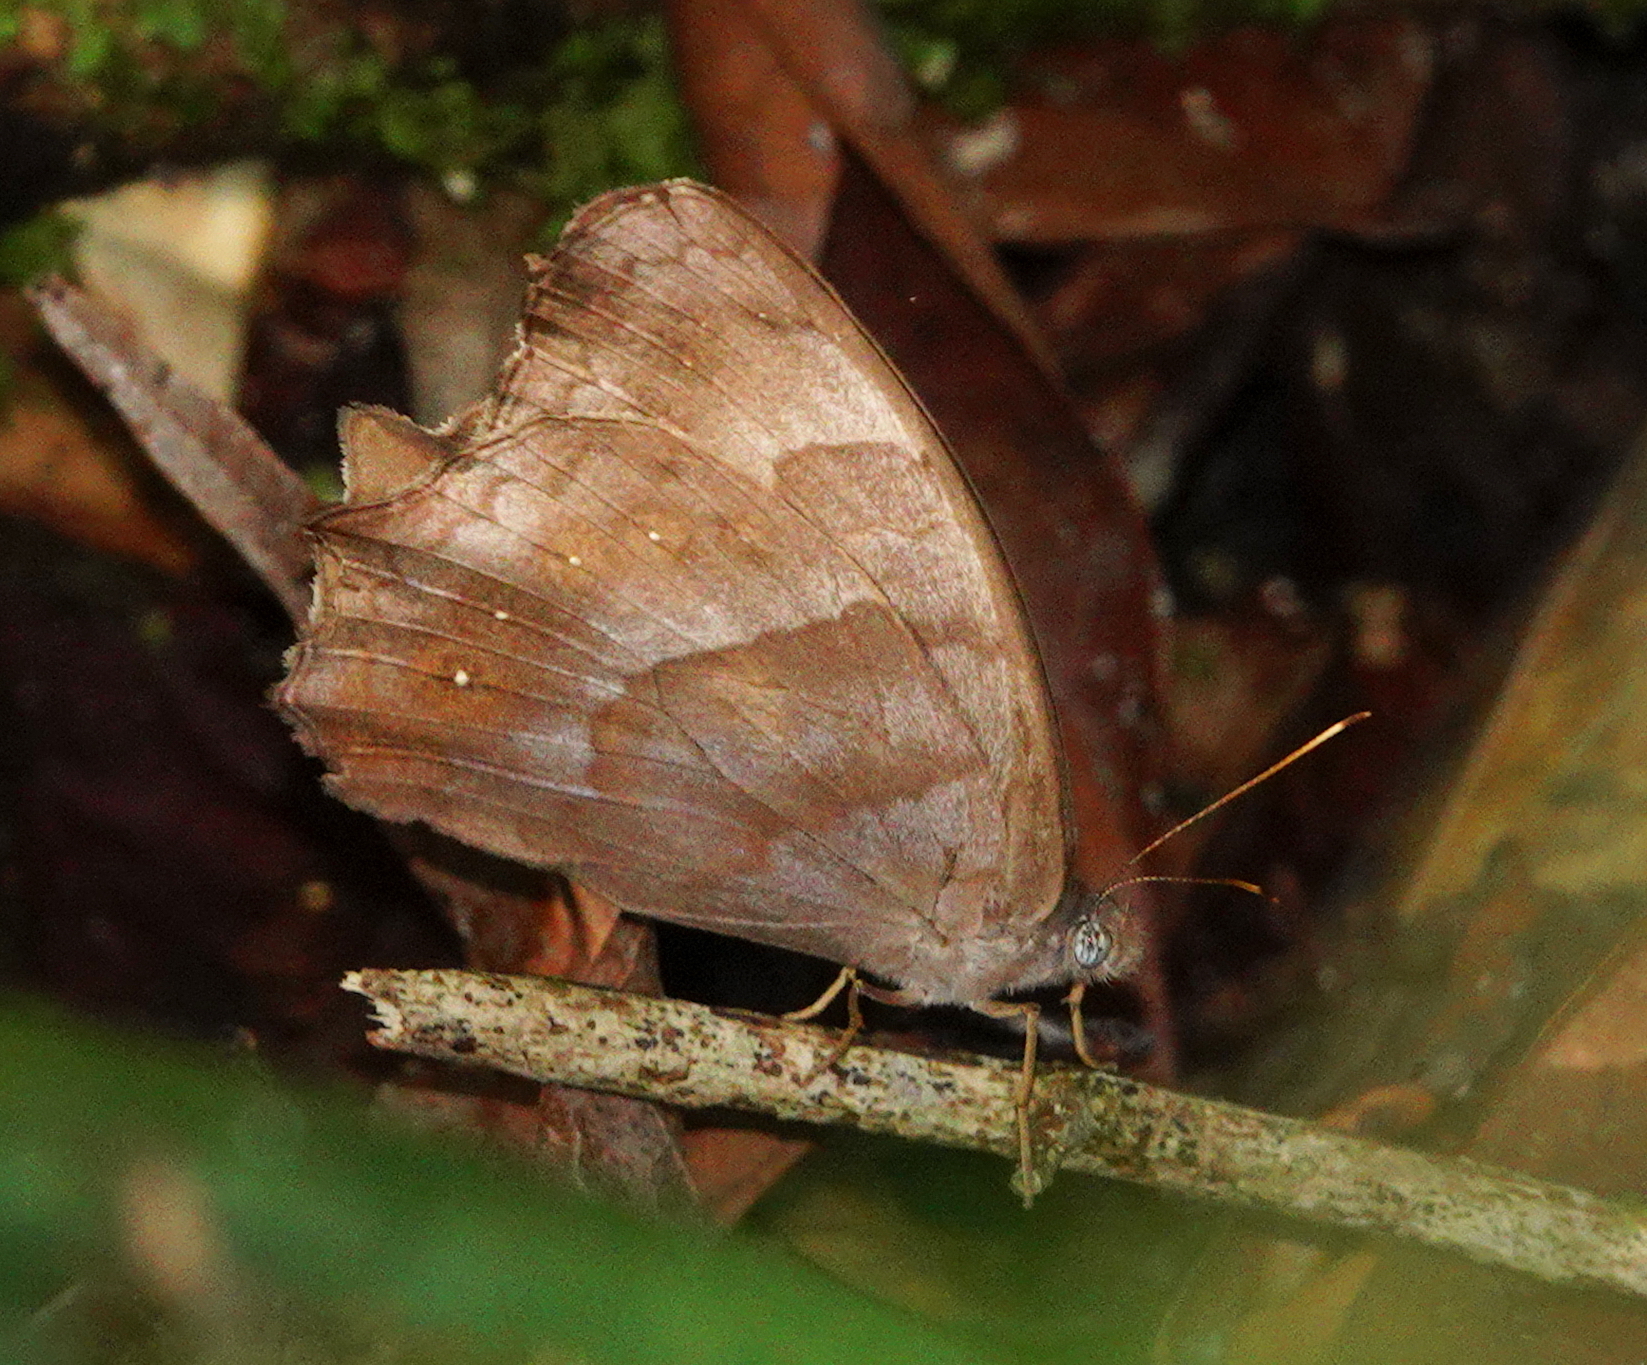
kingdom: Animalia
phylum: Arthropoda
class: Insecta
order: Lepidoptera
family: Nymphalidae
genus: Pseudodebis
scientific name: Pseudodebis celia
